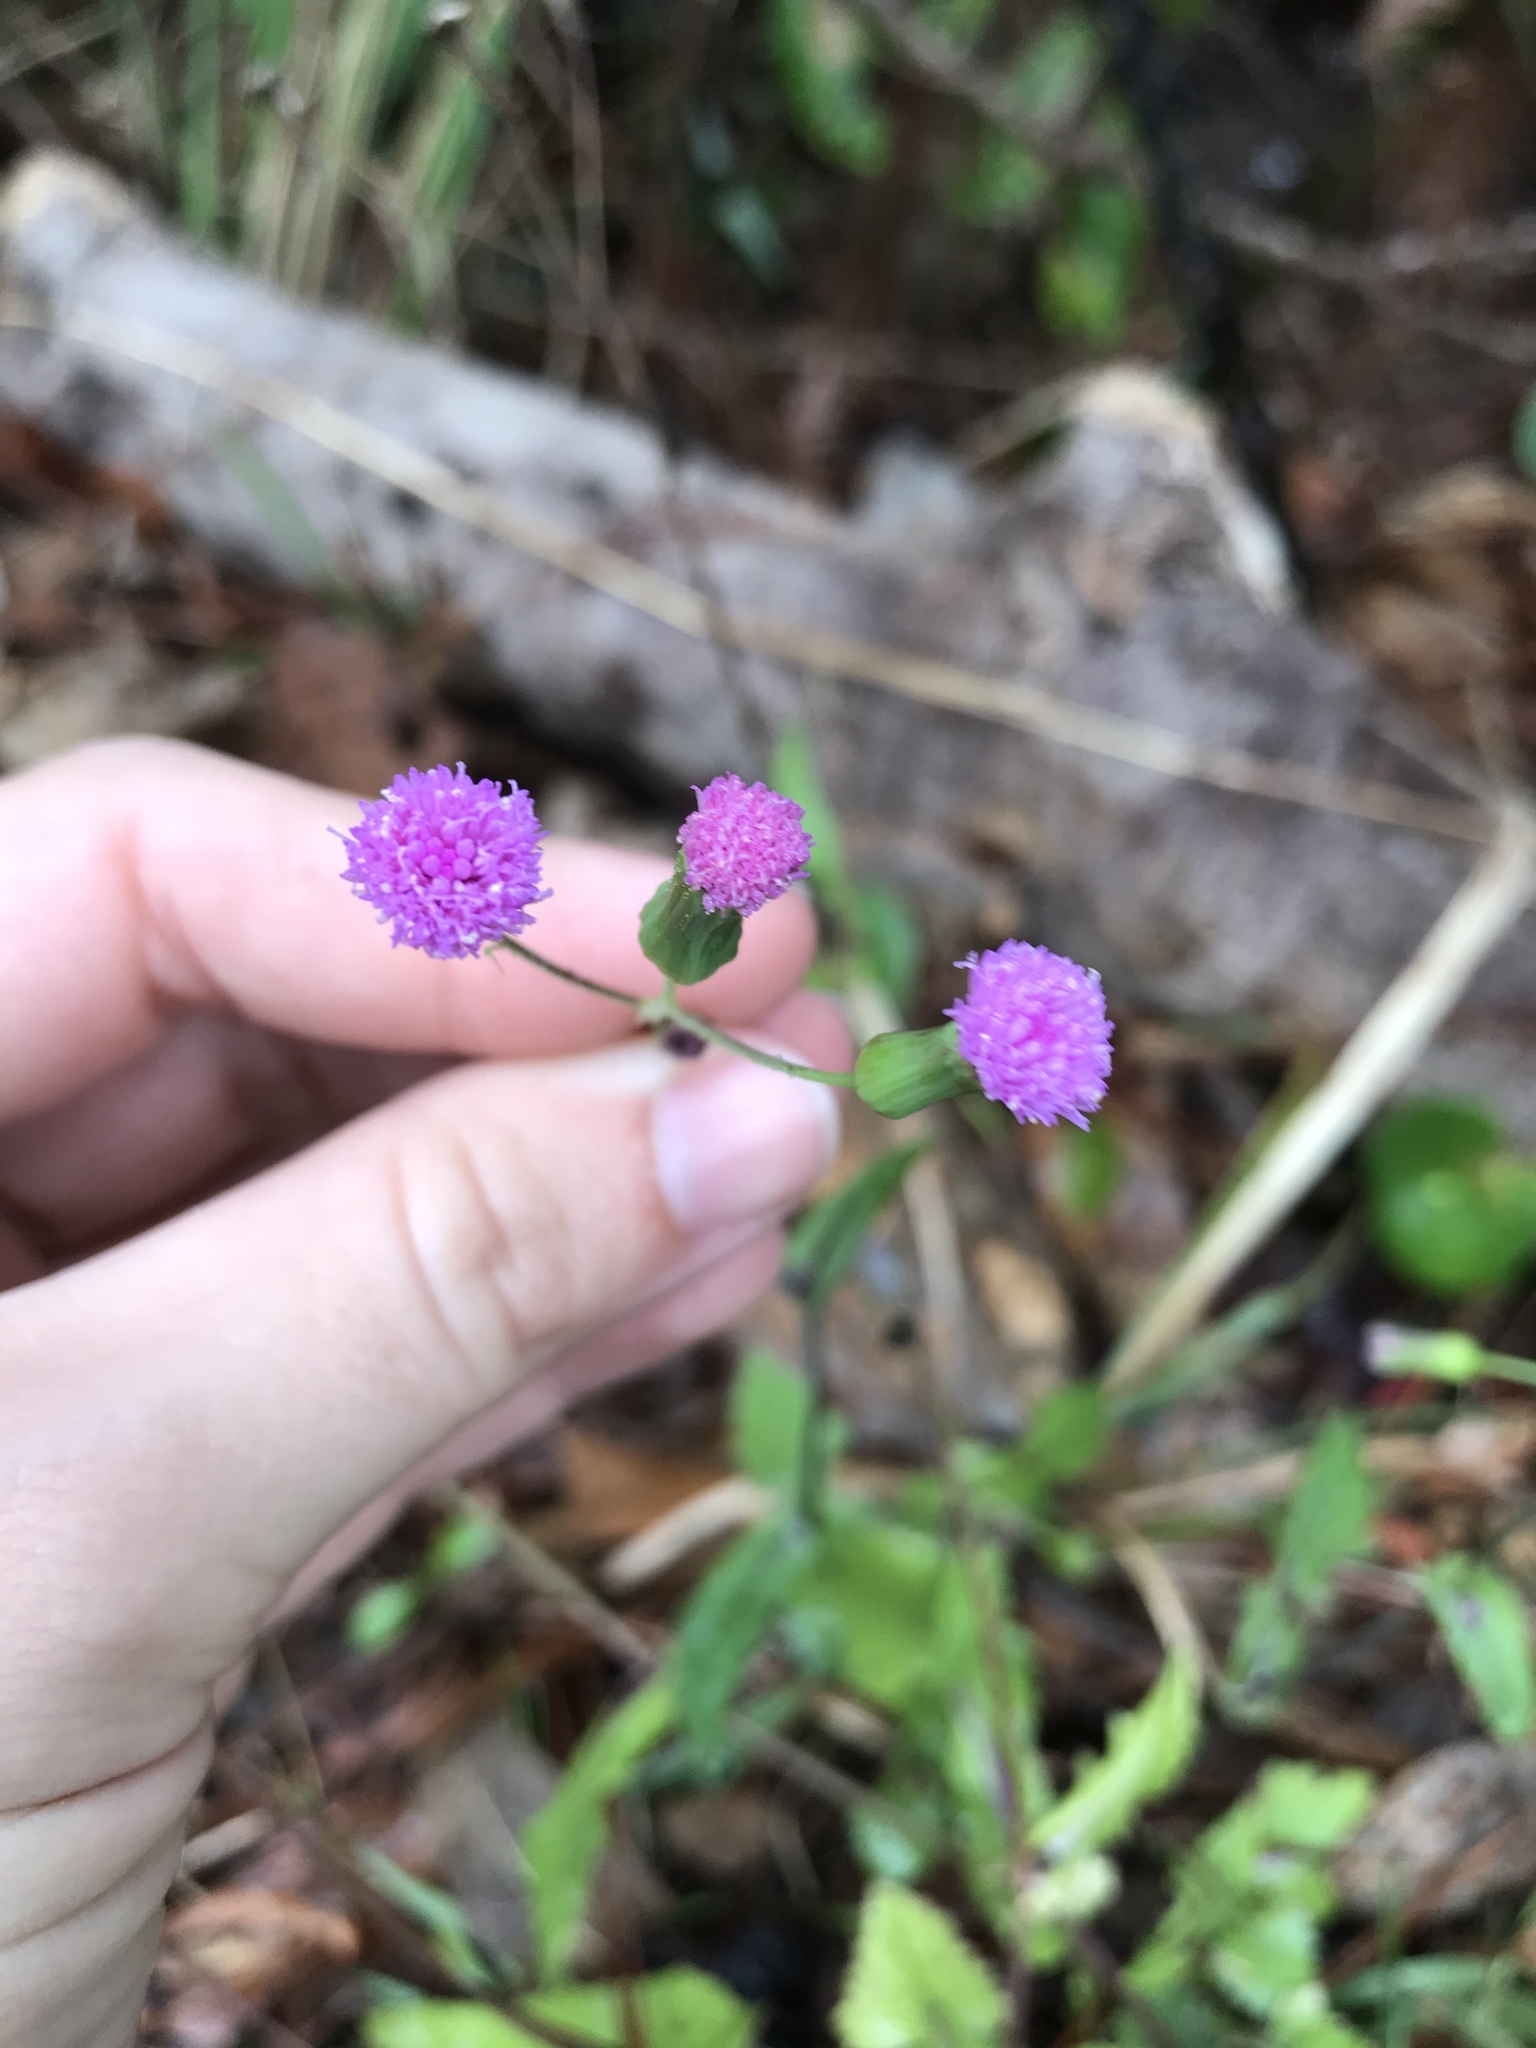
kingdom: Plantae
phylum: Tracheophyta
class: Magnoliopsida
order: Asterales
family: Asteraceae
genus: Emilia
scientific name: Emilia sonchifolia
